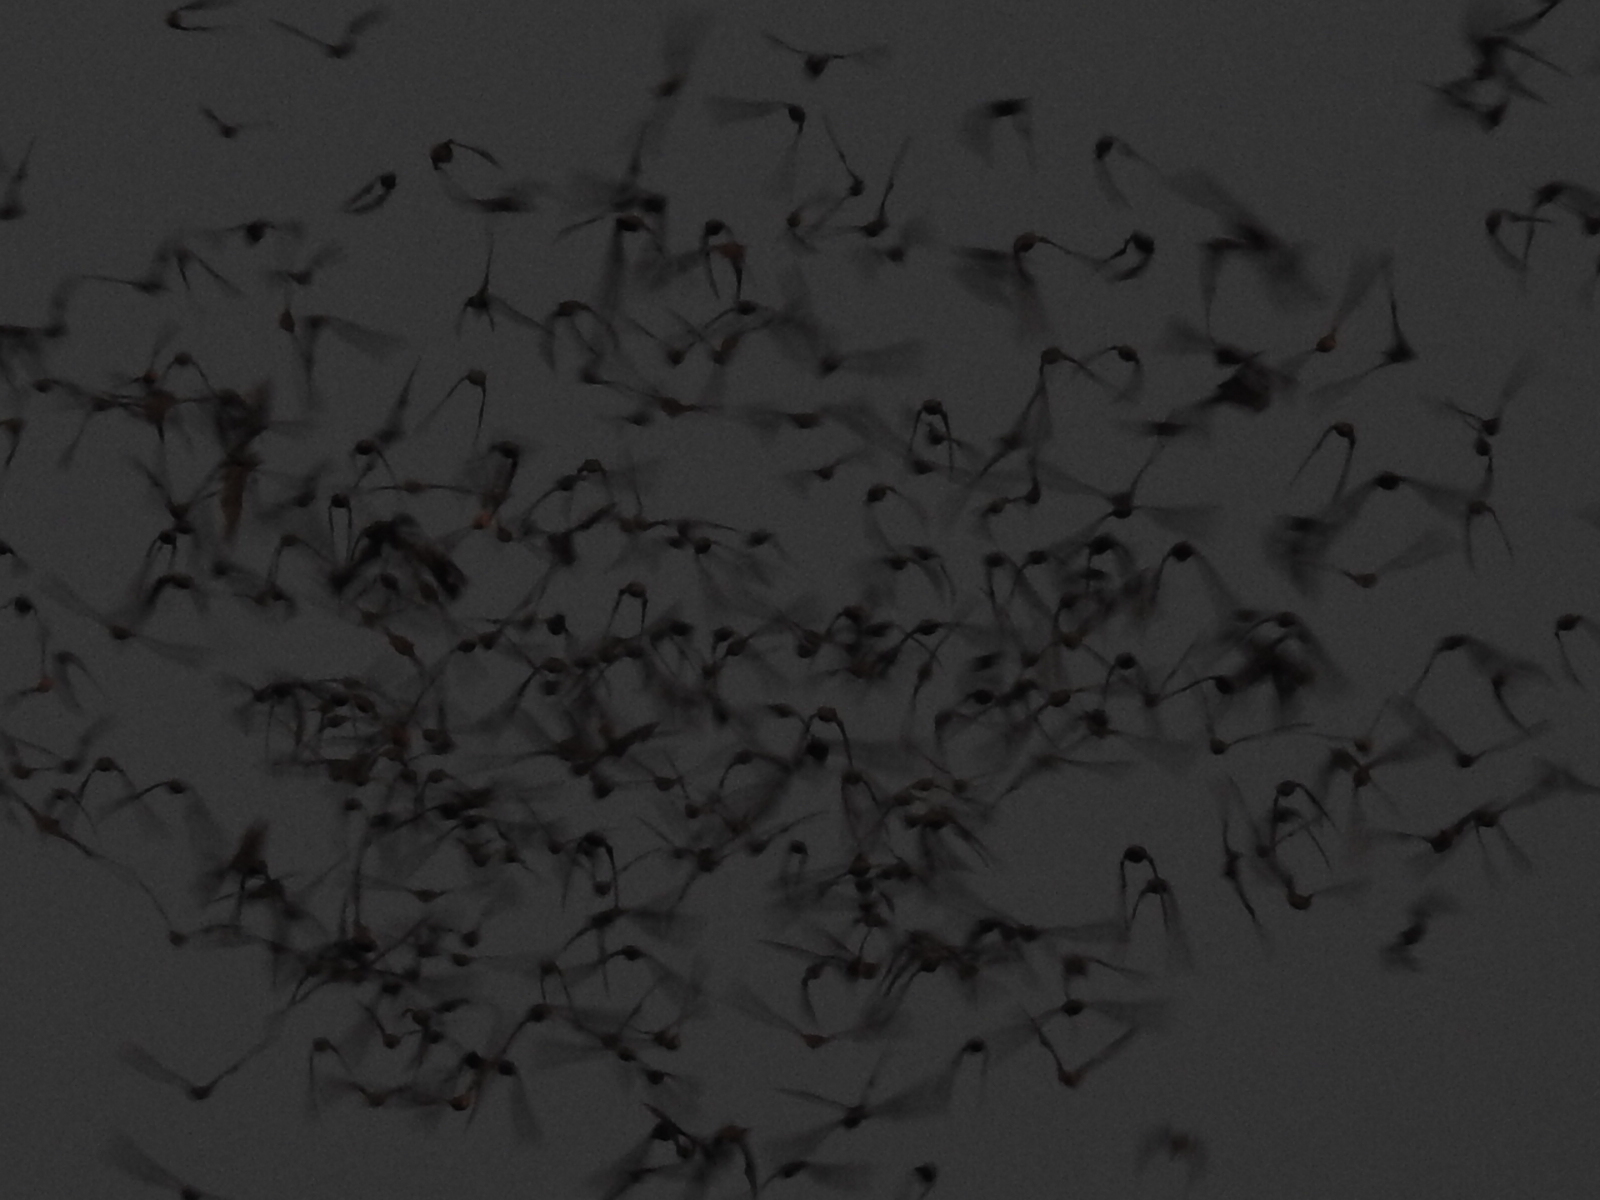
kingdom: Animalia
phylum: Chordata
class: Mammalia
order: Chiroptera
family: Molossidae
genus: Tadarida
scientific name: Tadarida brasiliensis
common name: Mexican free-tailed bat
